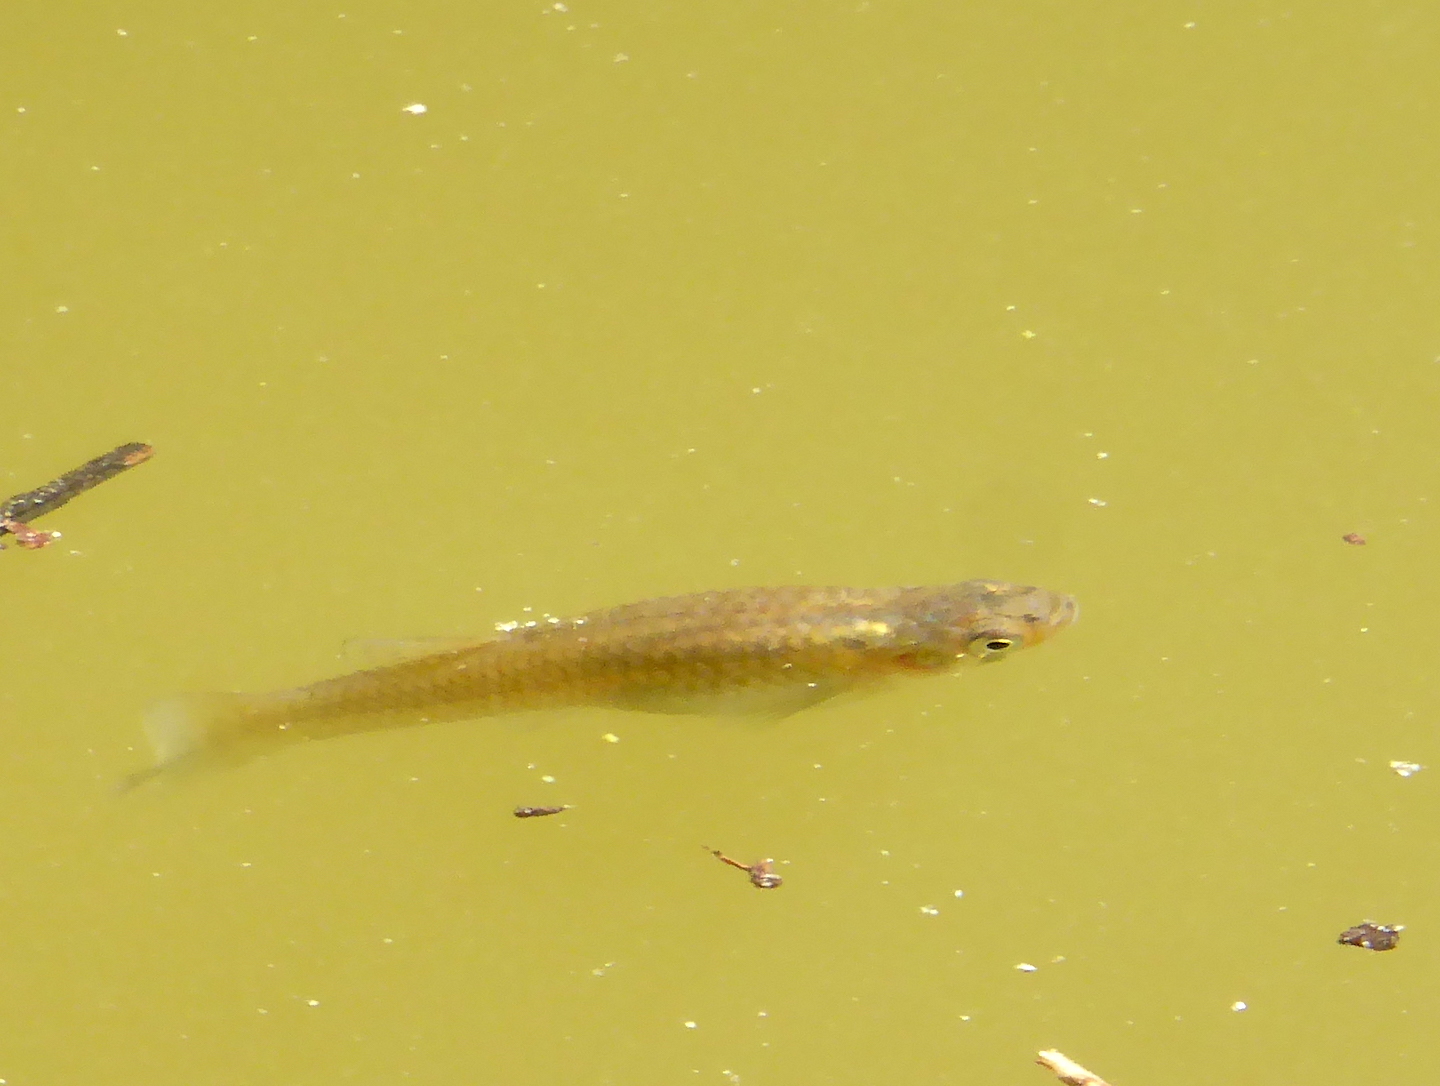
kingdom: Animalia
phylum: Chordata
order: Cyprinodontiformes
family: Poeciliidae
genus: Gambusia
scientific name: Gambusia affinis
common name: Mosquitofish
